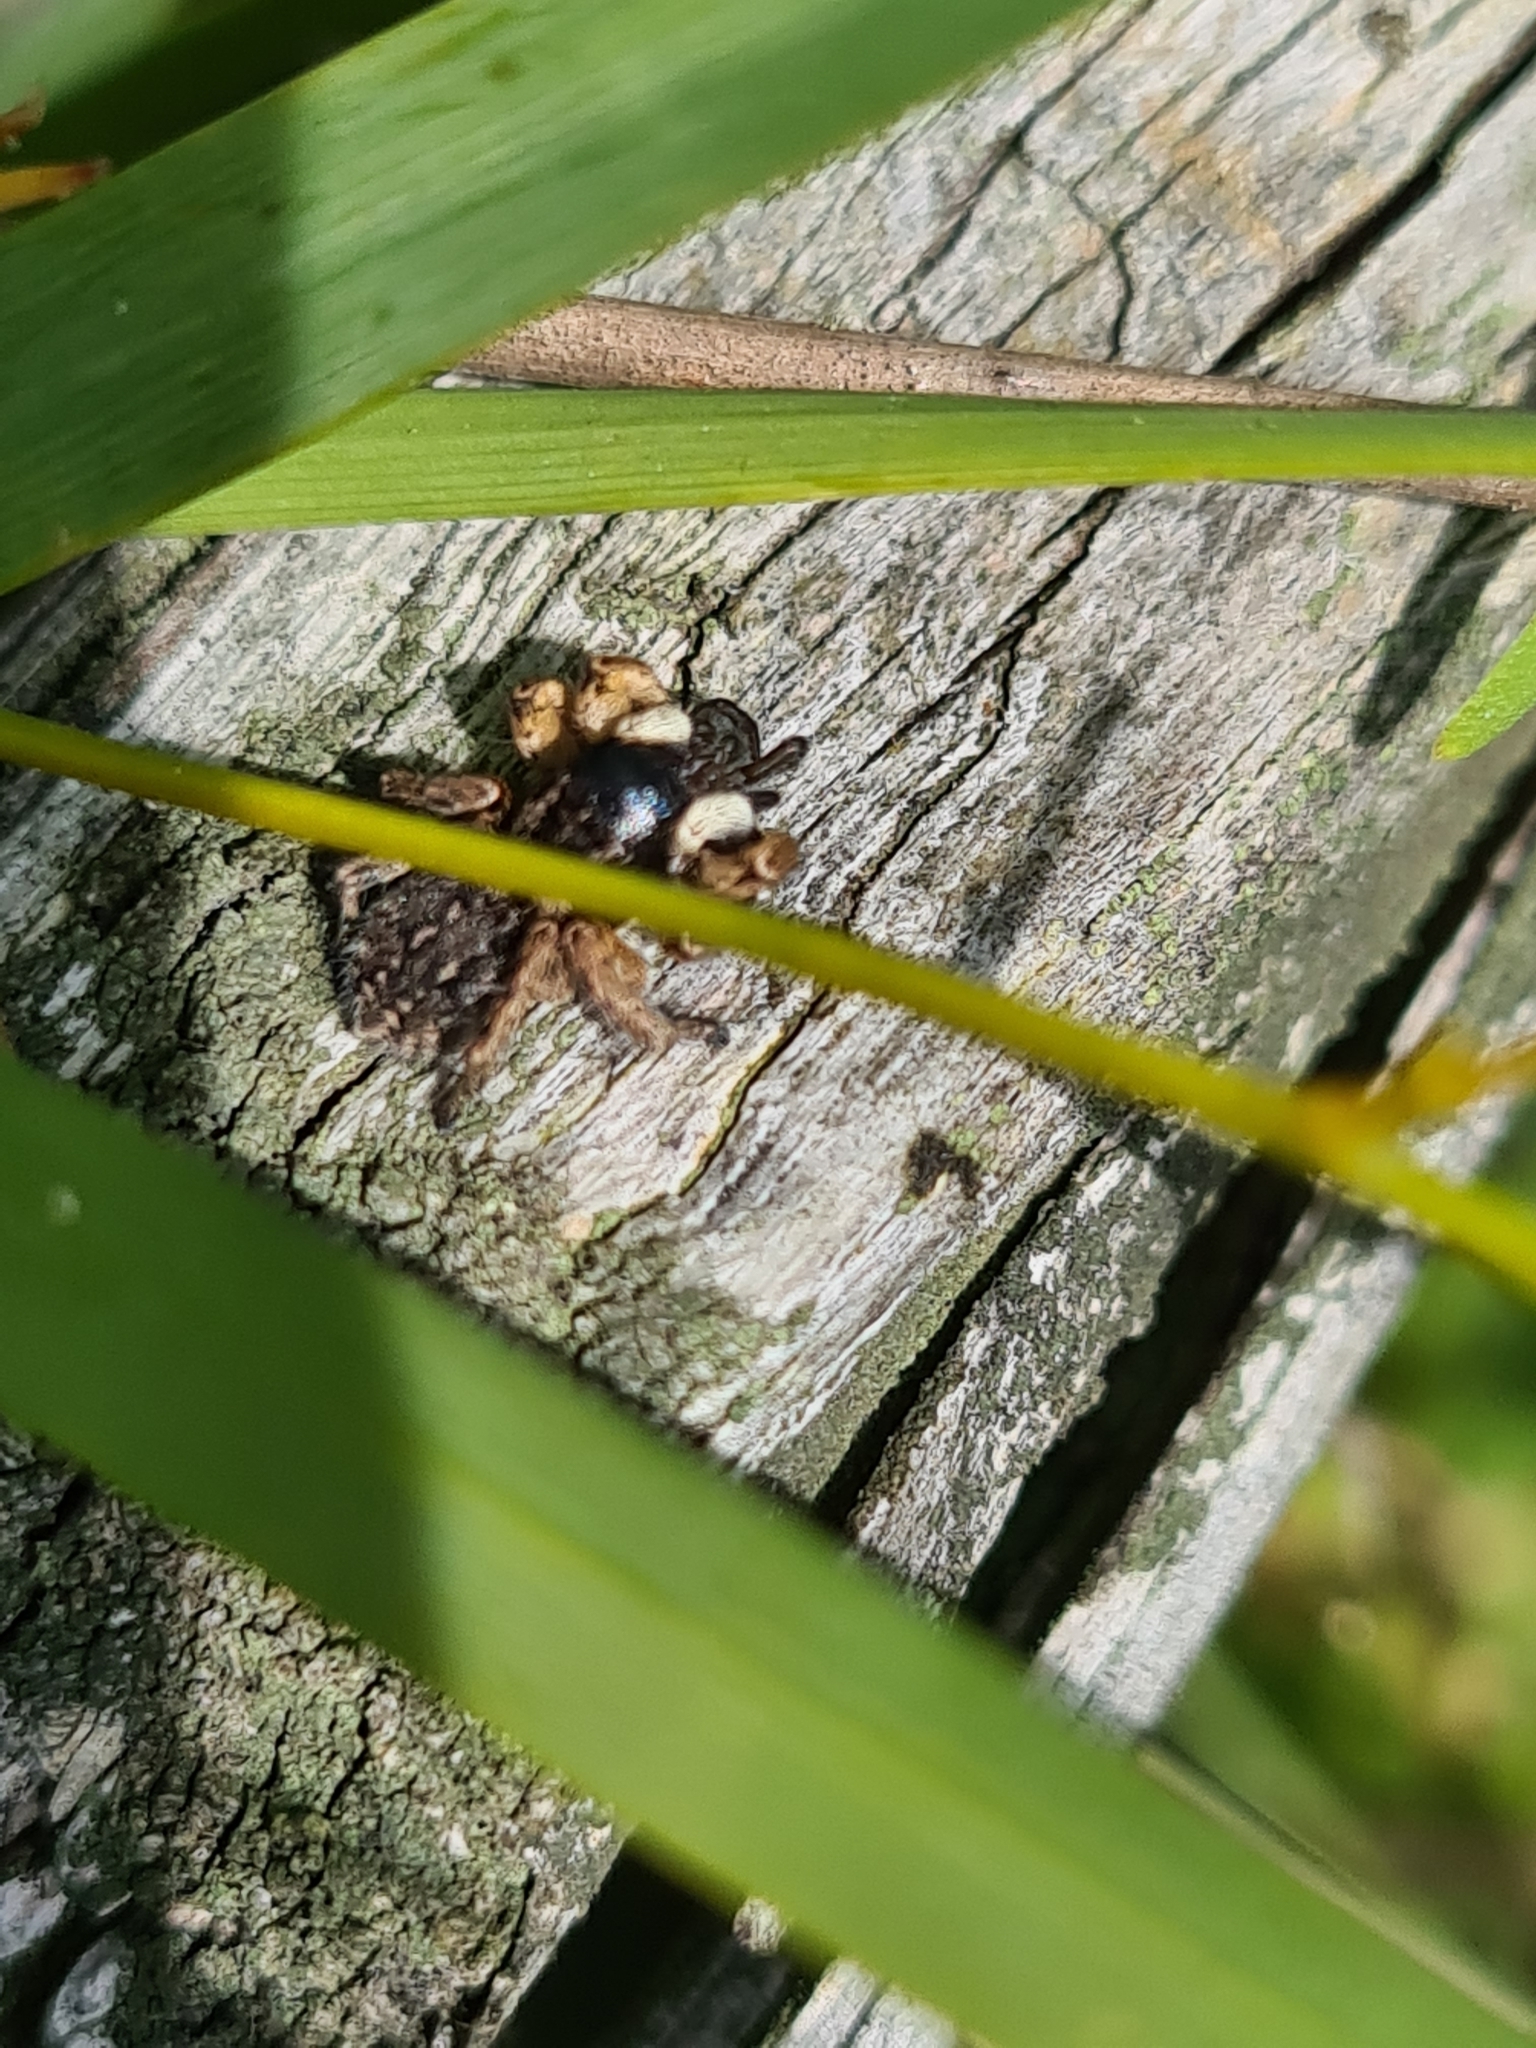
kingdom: Animalia
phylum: Arthropoda
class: Arachnida
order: Araneae
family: Salticidae
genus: Asianellus
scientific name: Asianellus festivus
